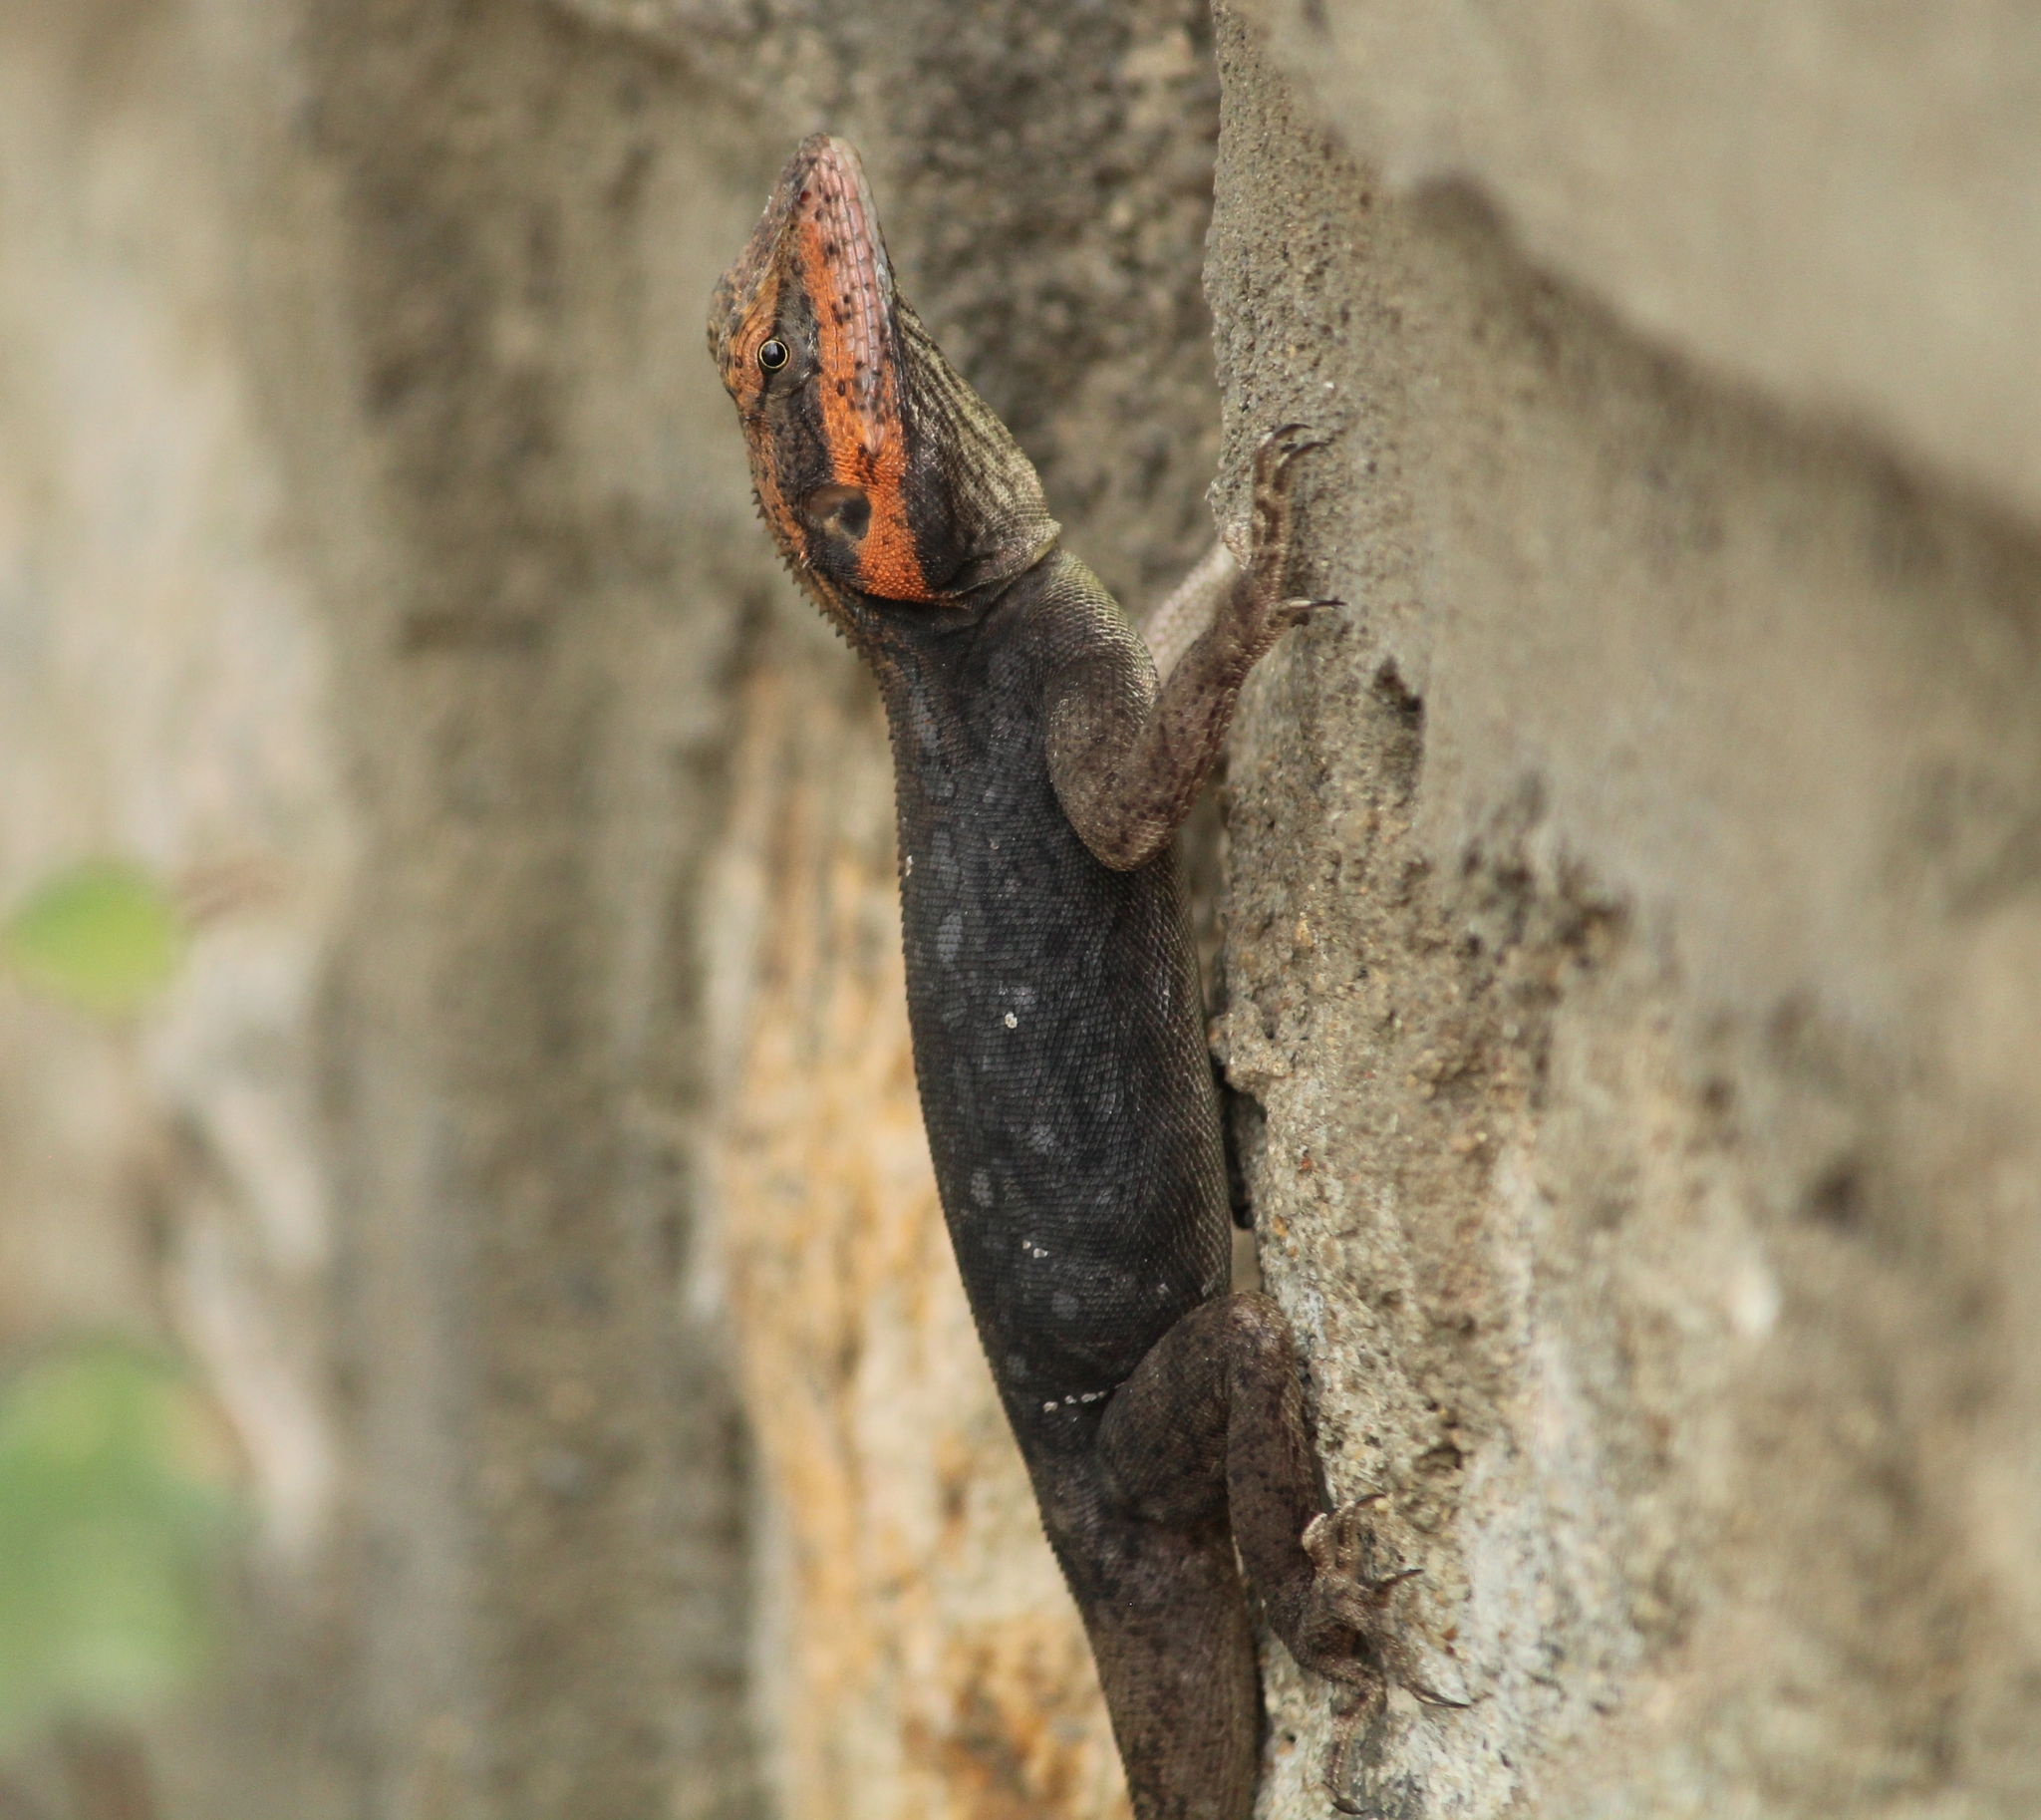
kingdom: Animalia
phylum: Chordata
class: Squamata
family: Agamidae
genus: Psammophilus
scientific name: Psammophilus blanfordanus
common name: Blanford's rock agama
